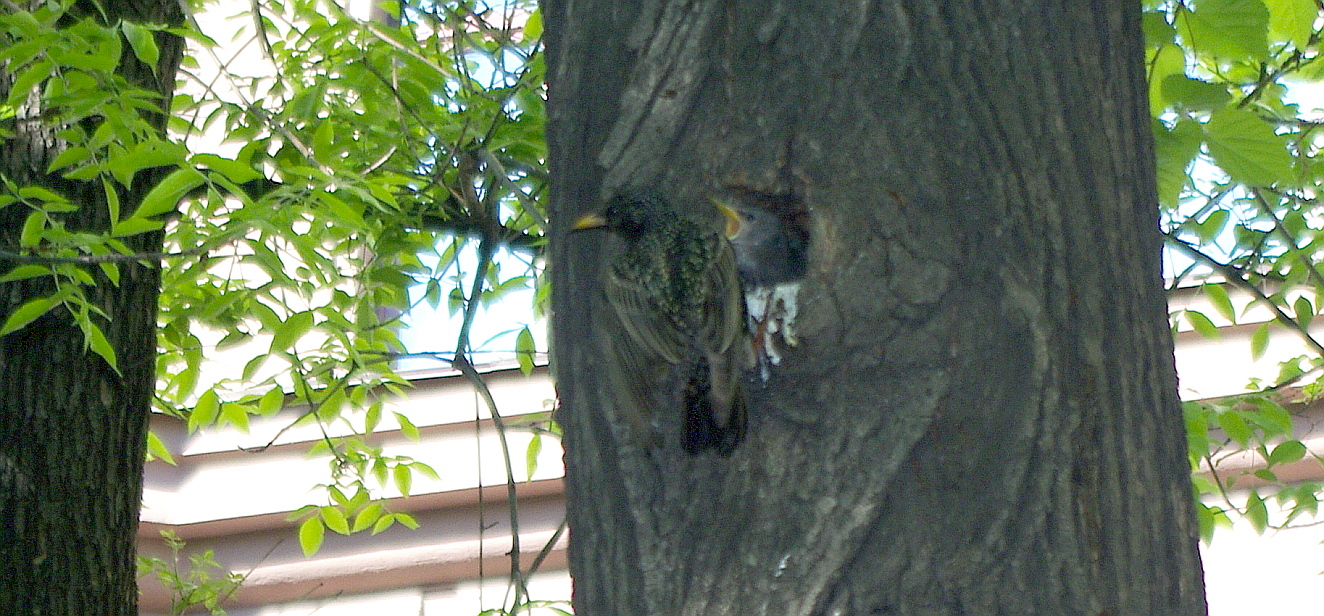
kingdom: Animalia
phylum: Chordata
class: Aves
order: Passeriformes
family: Sturnidae
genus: Sturnus
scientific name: Sturnus vulgaris
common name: Common starling
